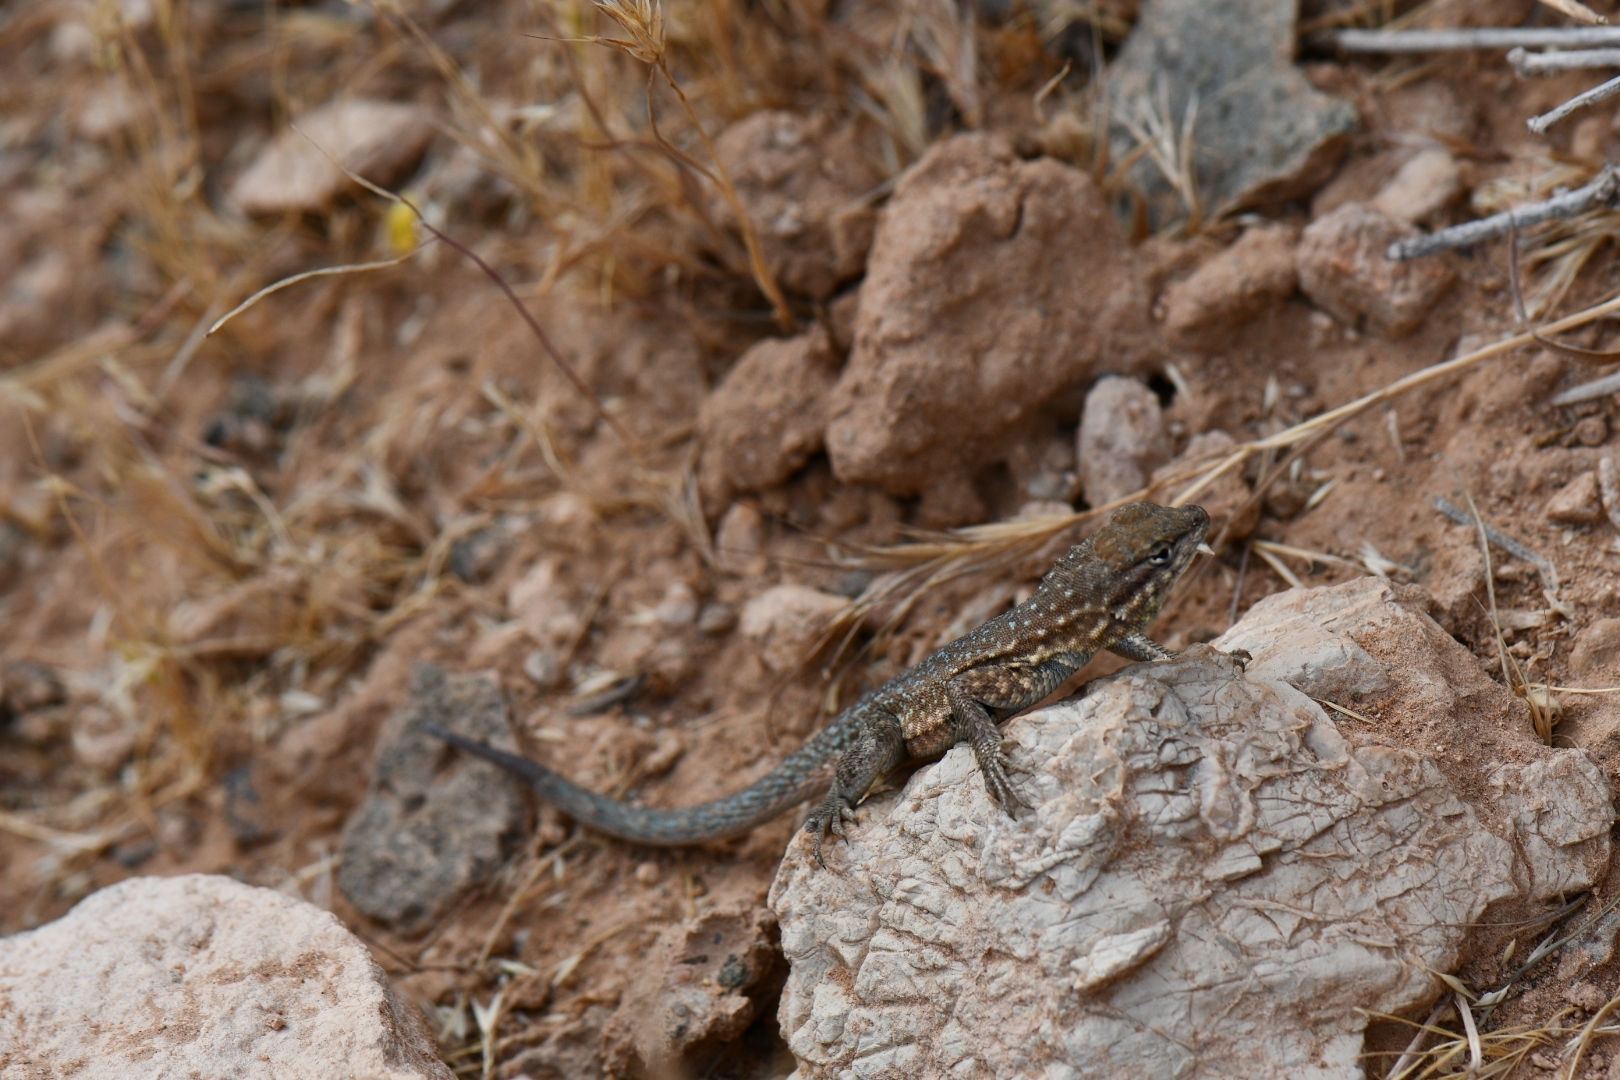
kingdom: Animalia
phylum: Chordata
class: Squamata
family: Phrynosomatidae
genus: Uta
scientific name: Uta stansburiana
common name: Side-blotched lizard
